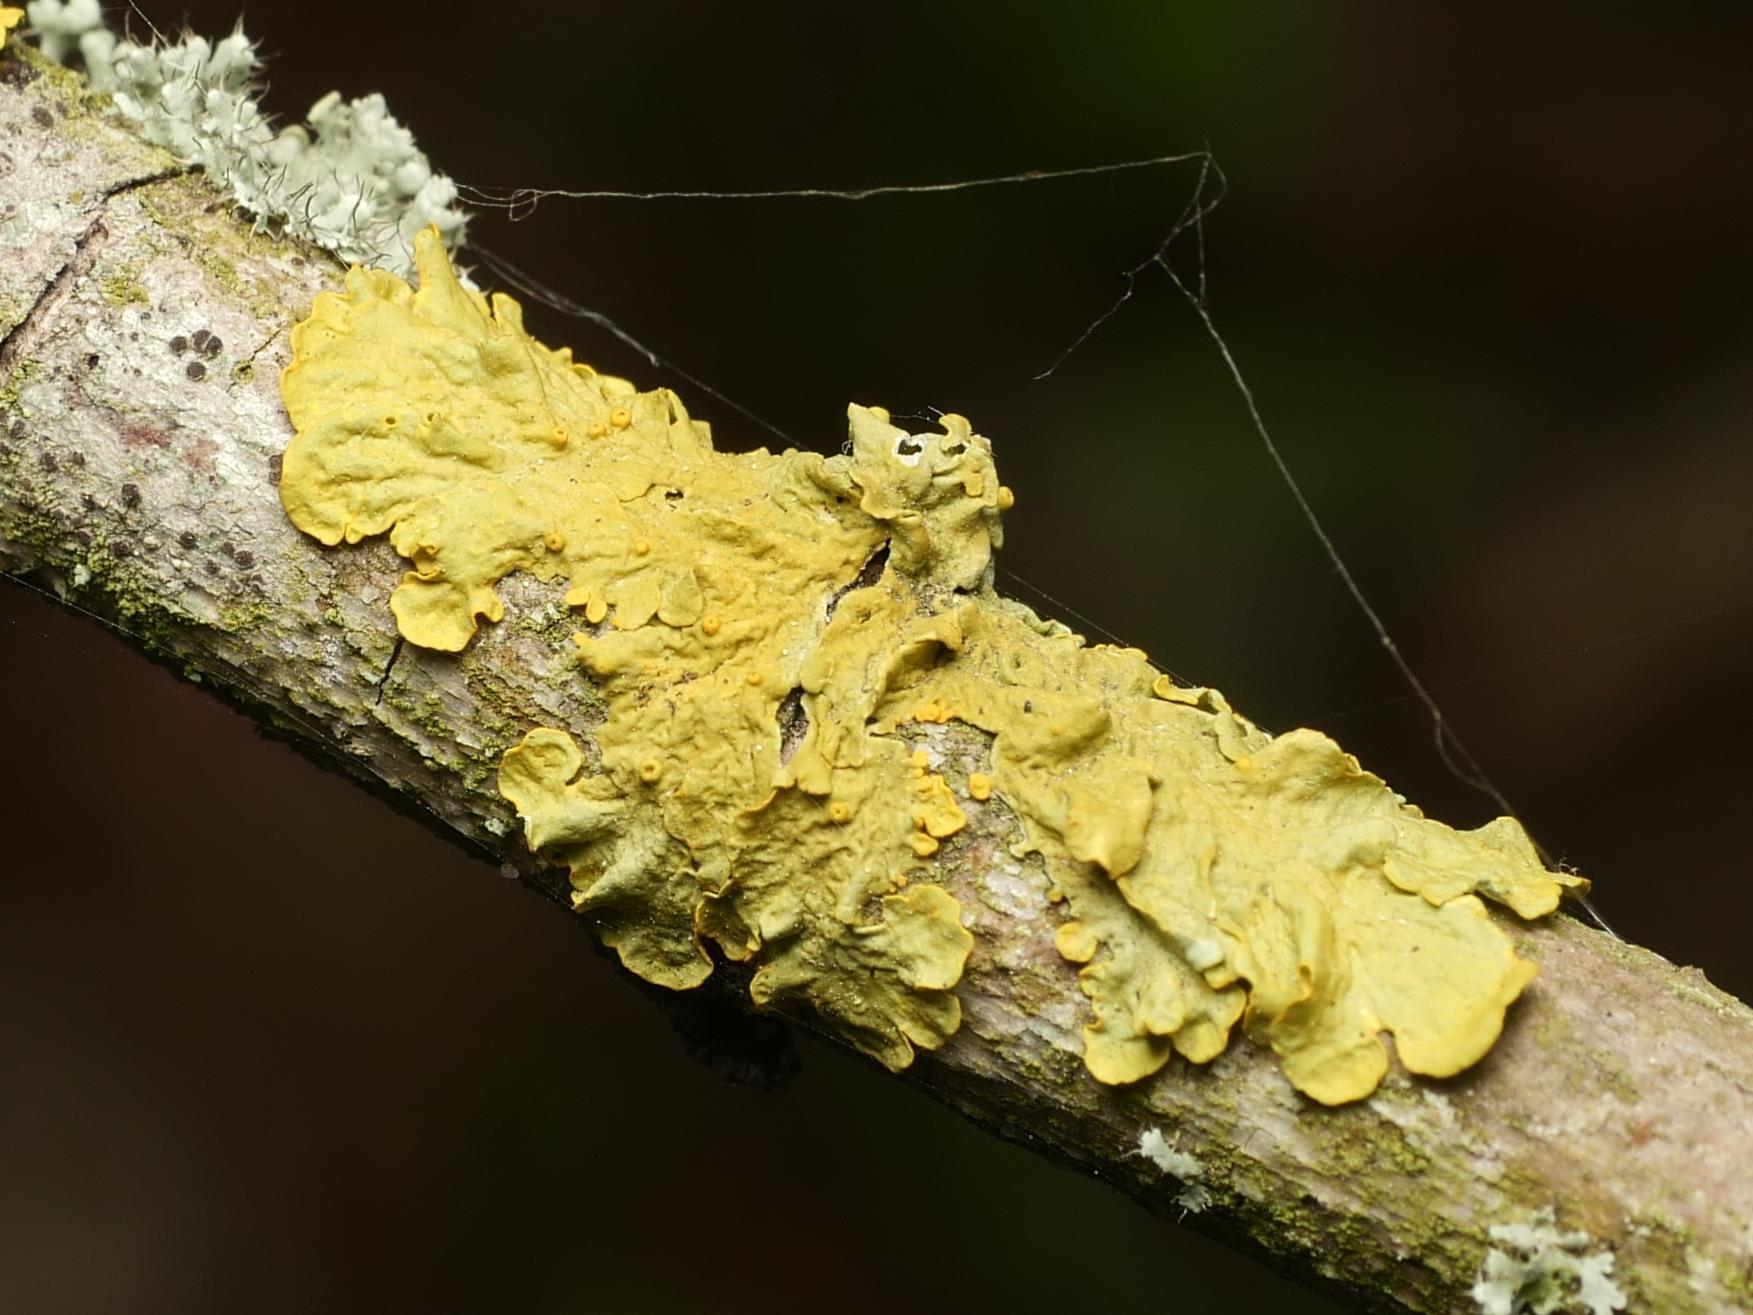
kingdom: Fungi
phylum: Ascomycota
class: Lecanoromycetes
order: Teloschistales
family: Teloschistaceae
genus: Xanthoria
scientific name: Xanthoria parietina
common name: Common orange lichen
